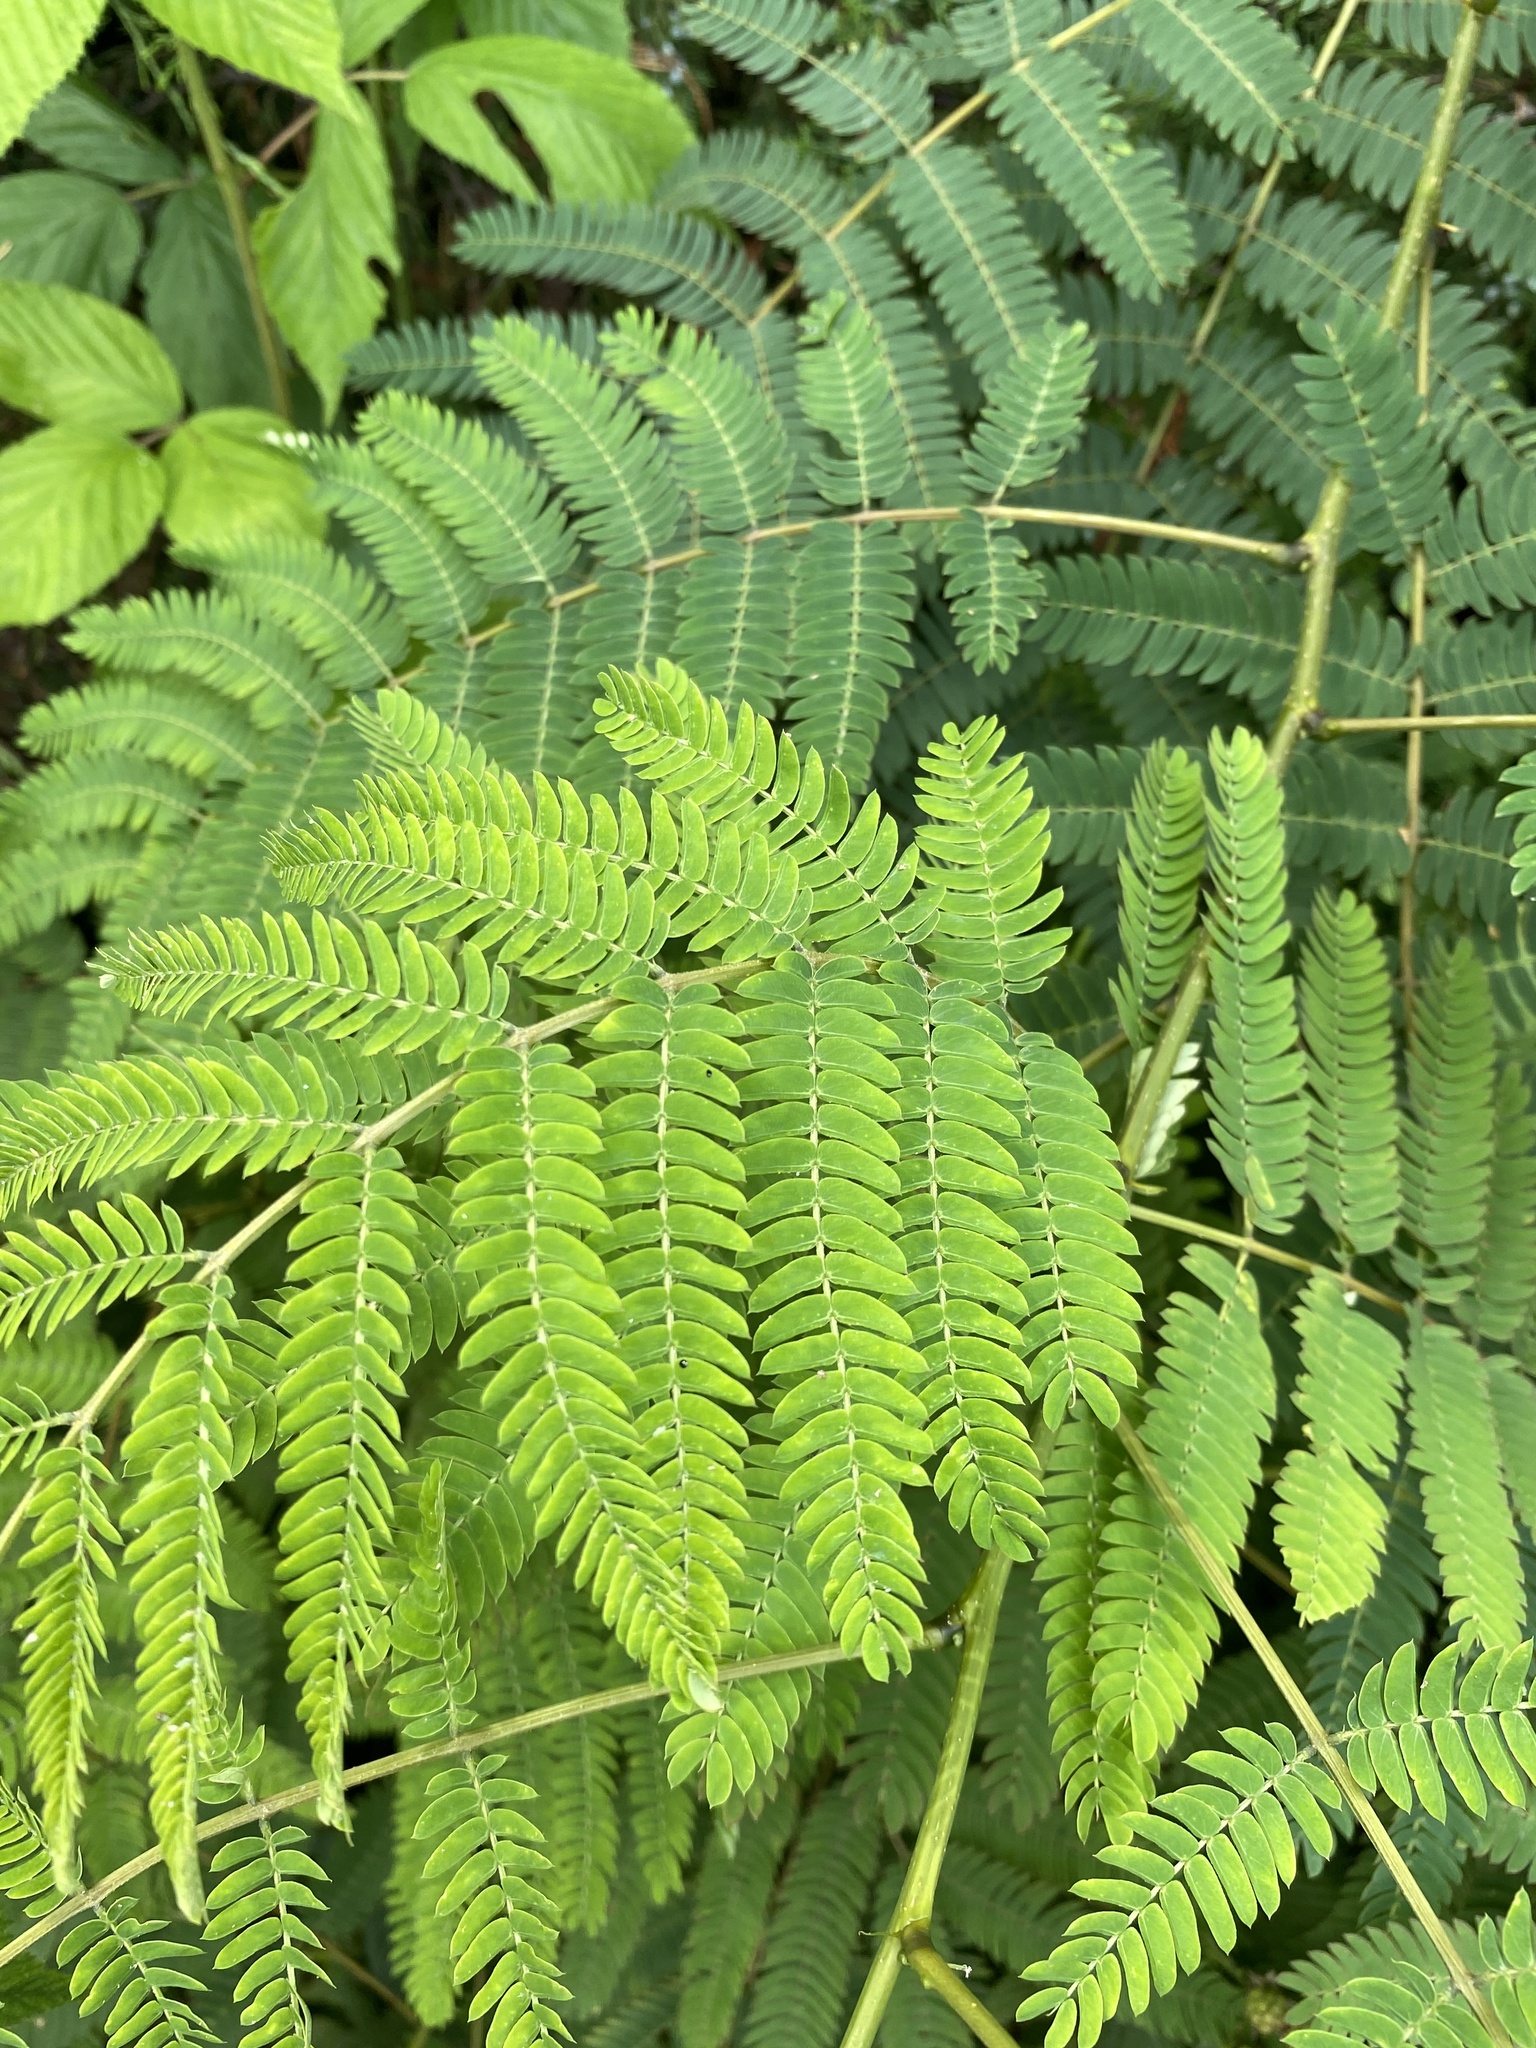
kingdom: Plantae
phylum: Tracheophyta
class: Magnoliopsida
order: Fabales
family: Fabaceae
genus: Albizia
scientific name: Albizia julibrissin
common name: Silktree
